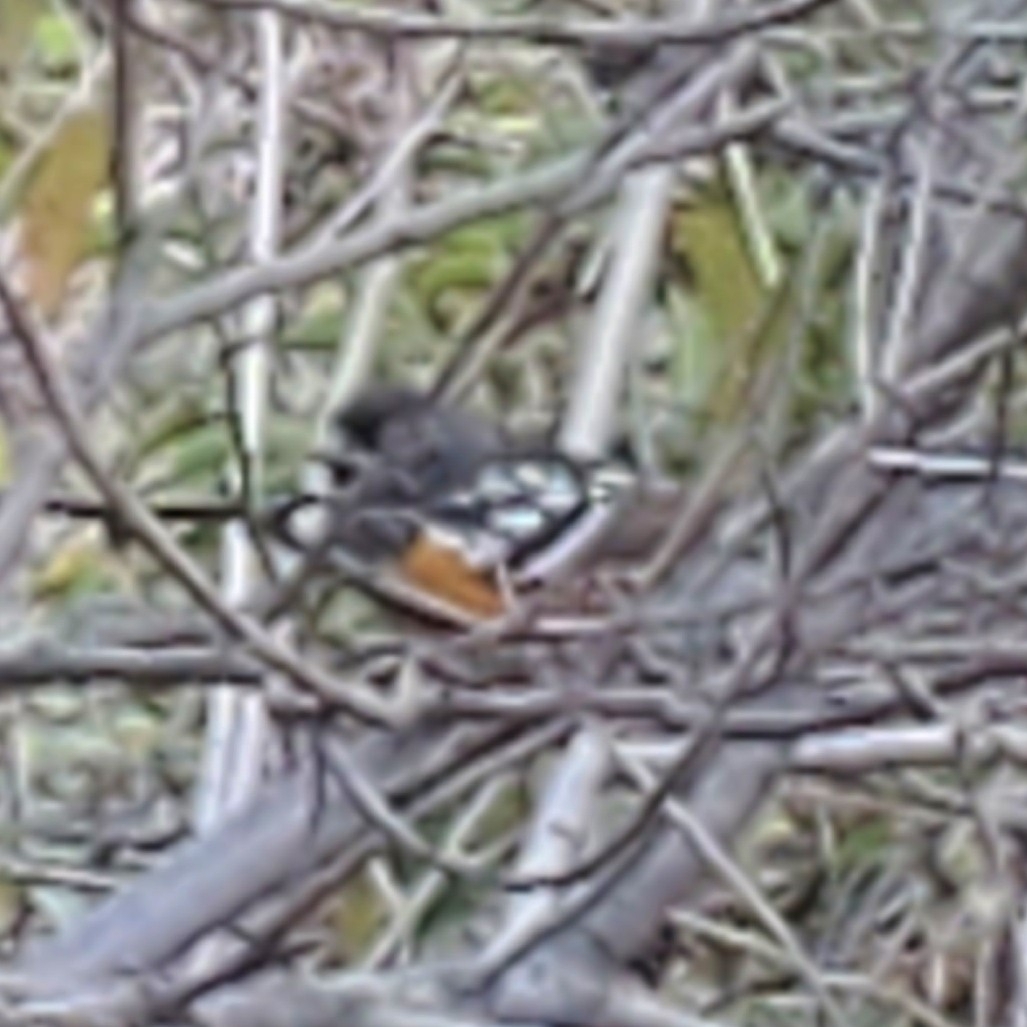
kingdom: Animalia
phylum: Chordata
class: Aves
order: Passeriformes
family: Passerellidae
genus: Pipilo
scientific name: Pipilo maculatus
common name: Spotted towhee
